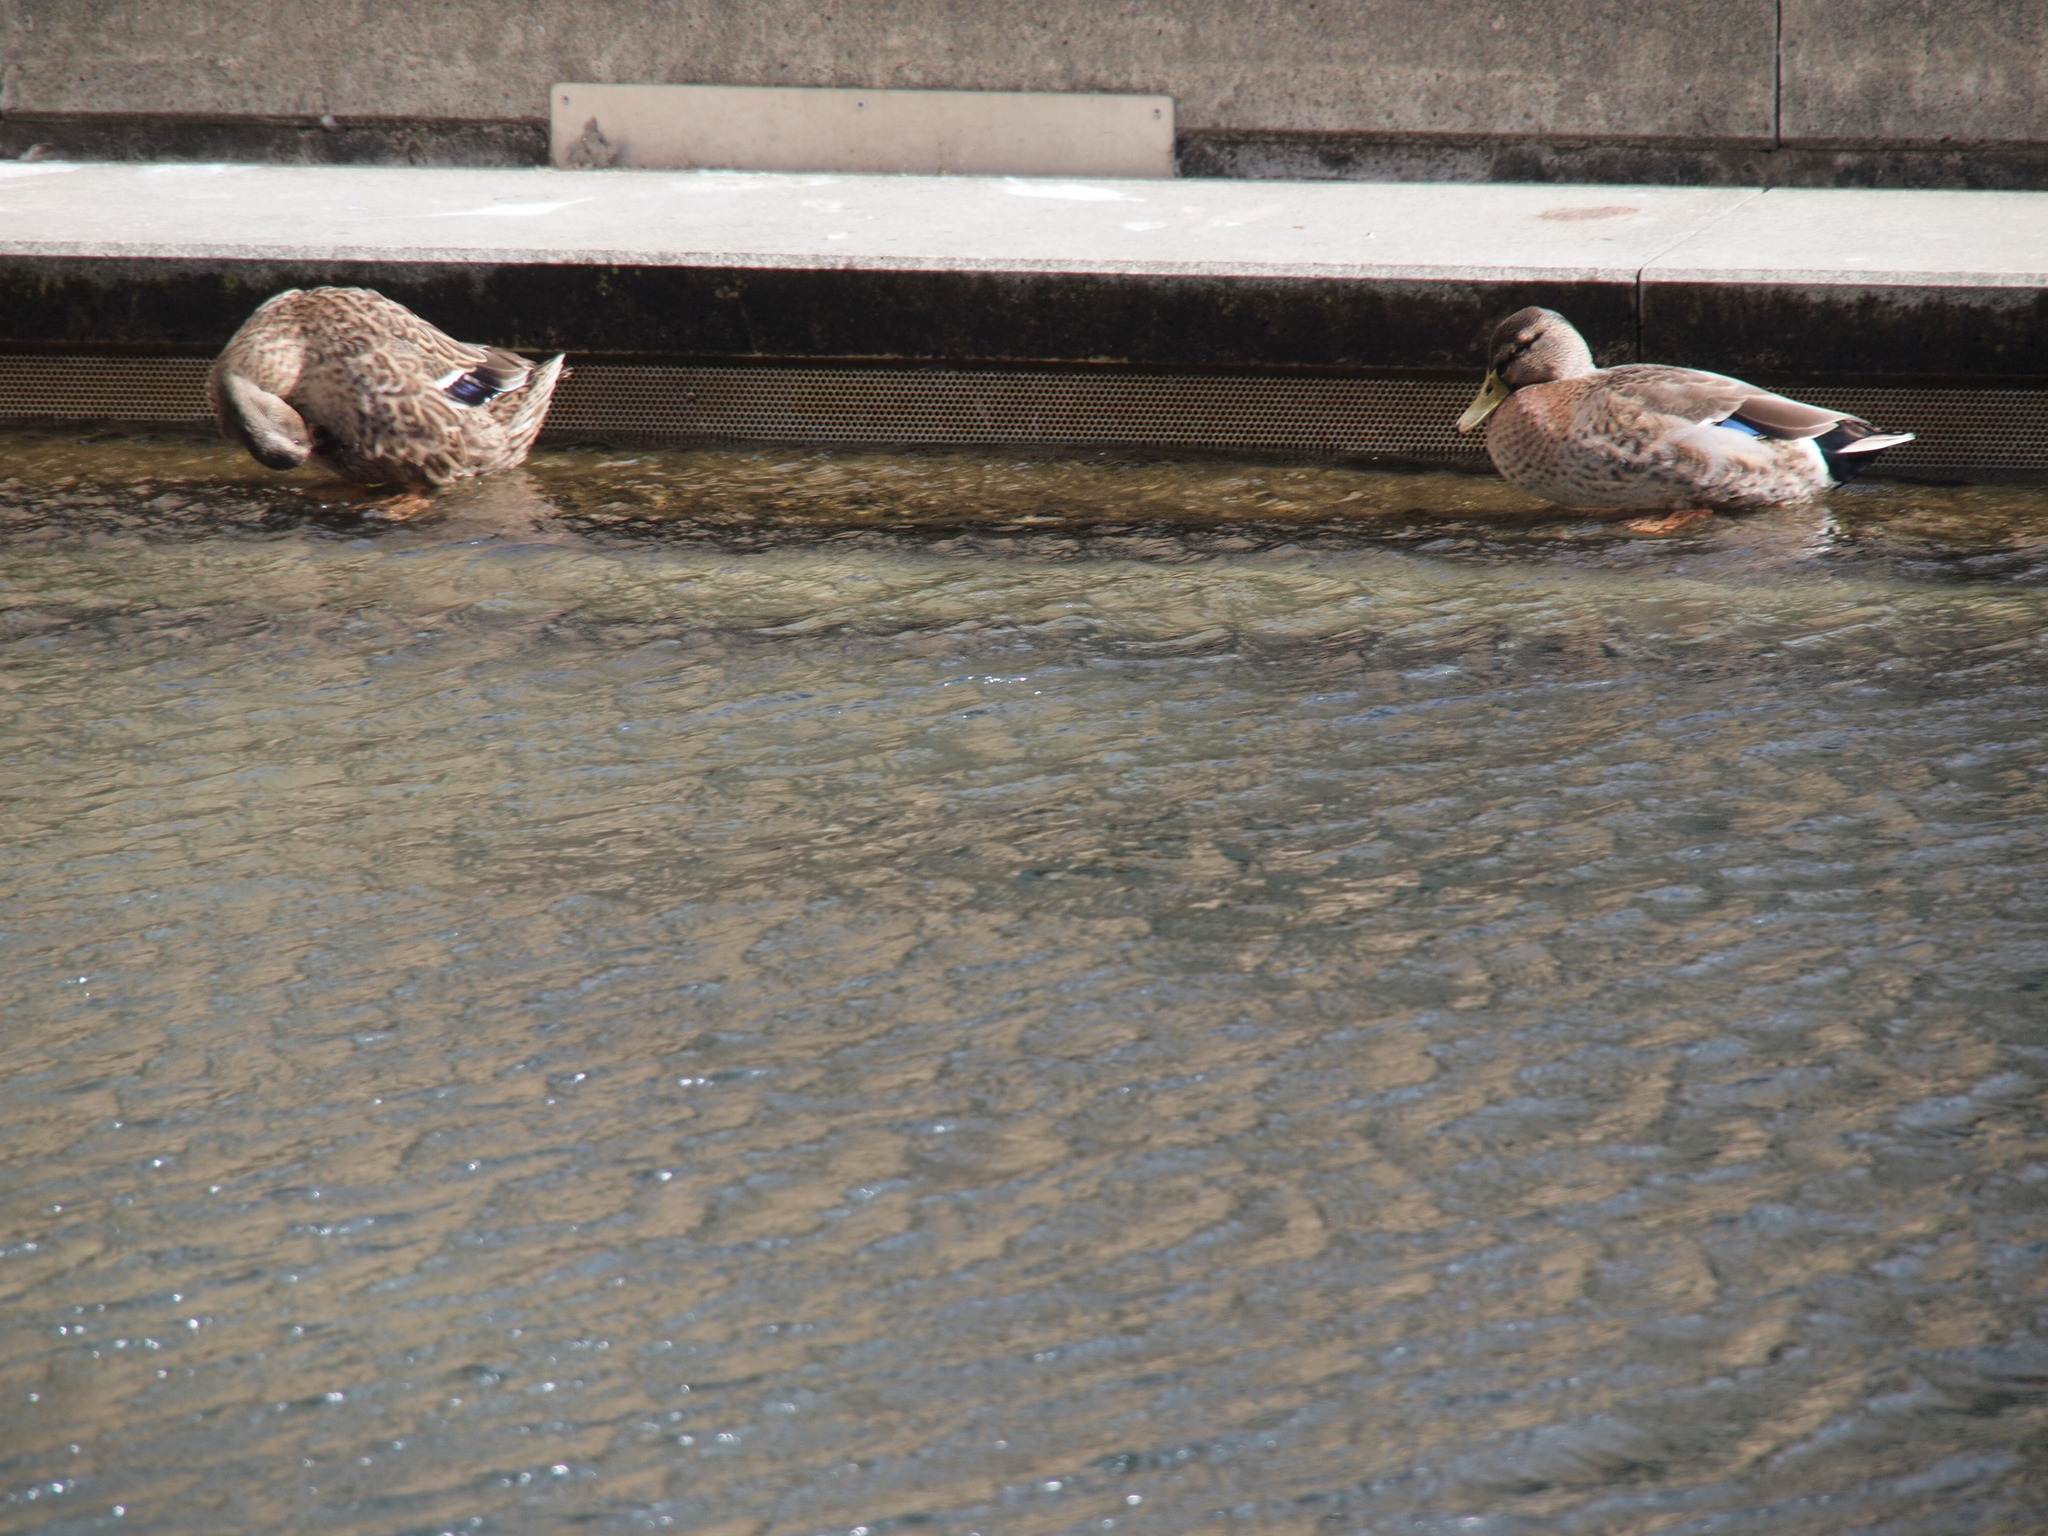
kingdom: Animalia
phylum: Chordata
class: Aves
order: Anseriformes
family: Anatidae
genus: Anas
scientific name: Anas platyrhynchos
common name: Mallard
